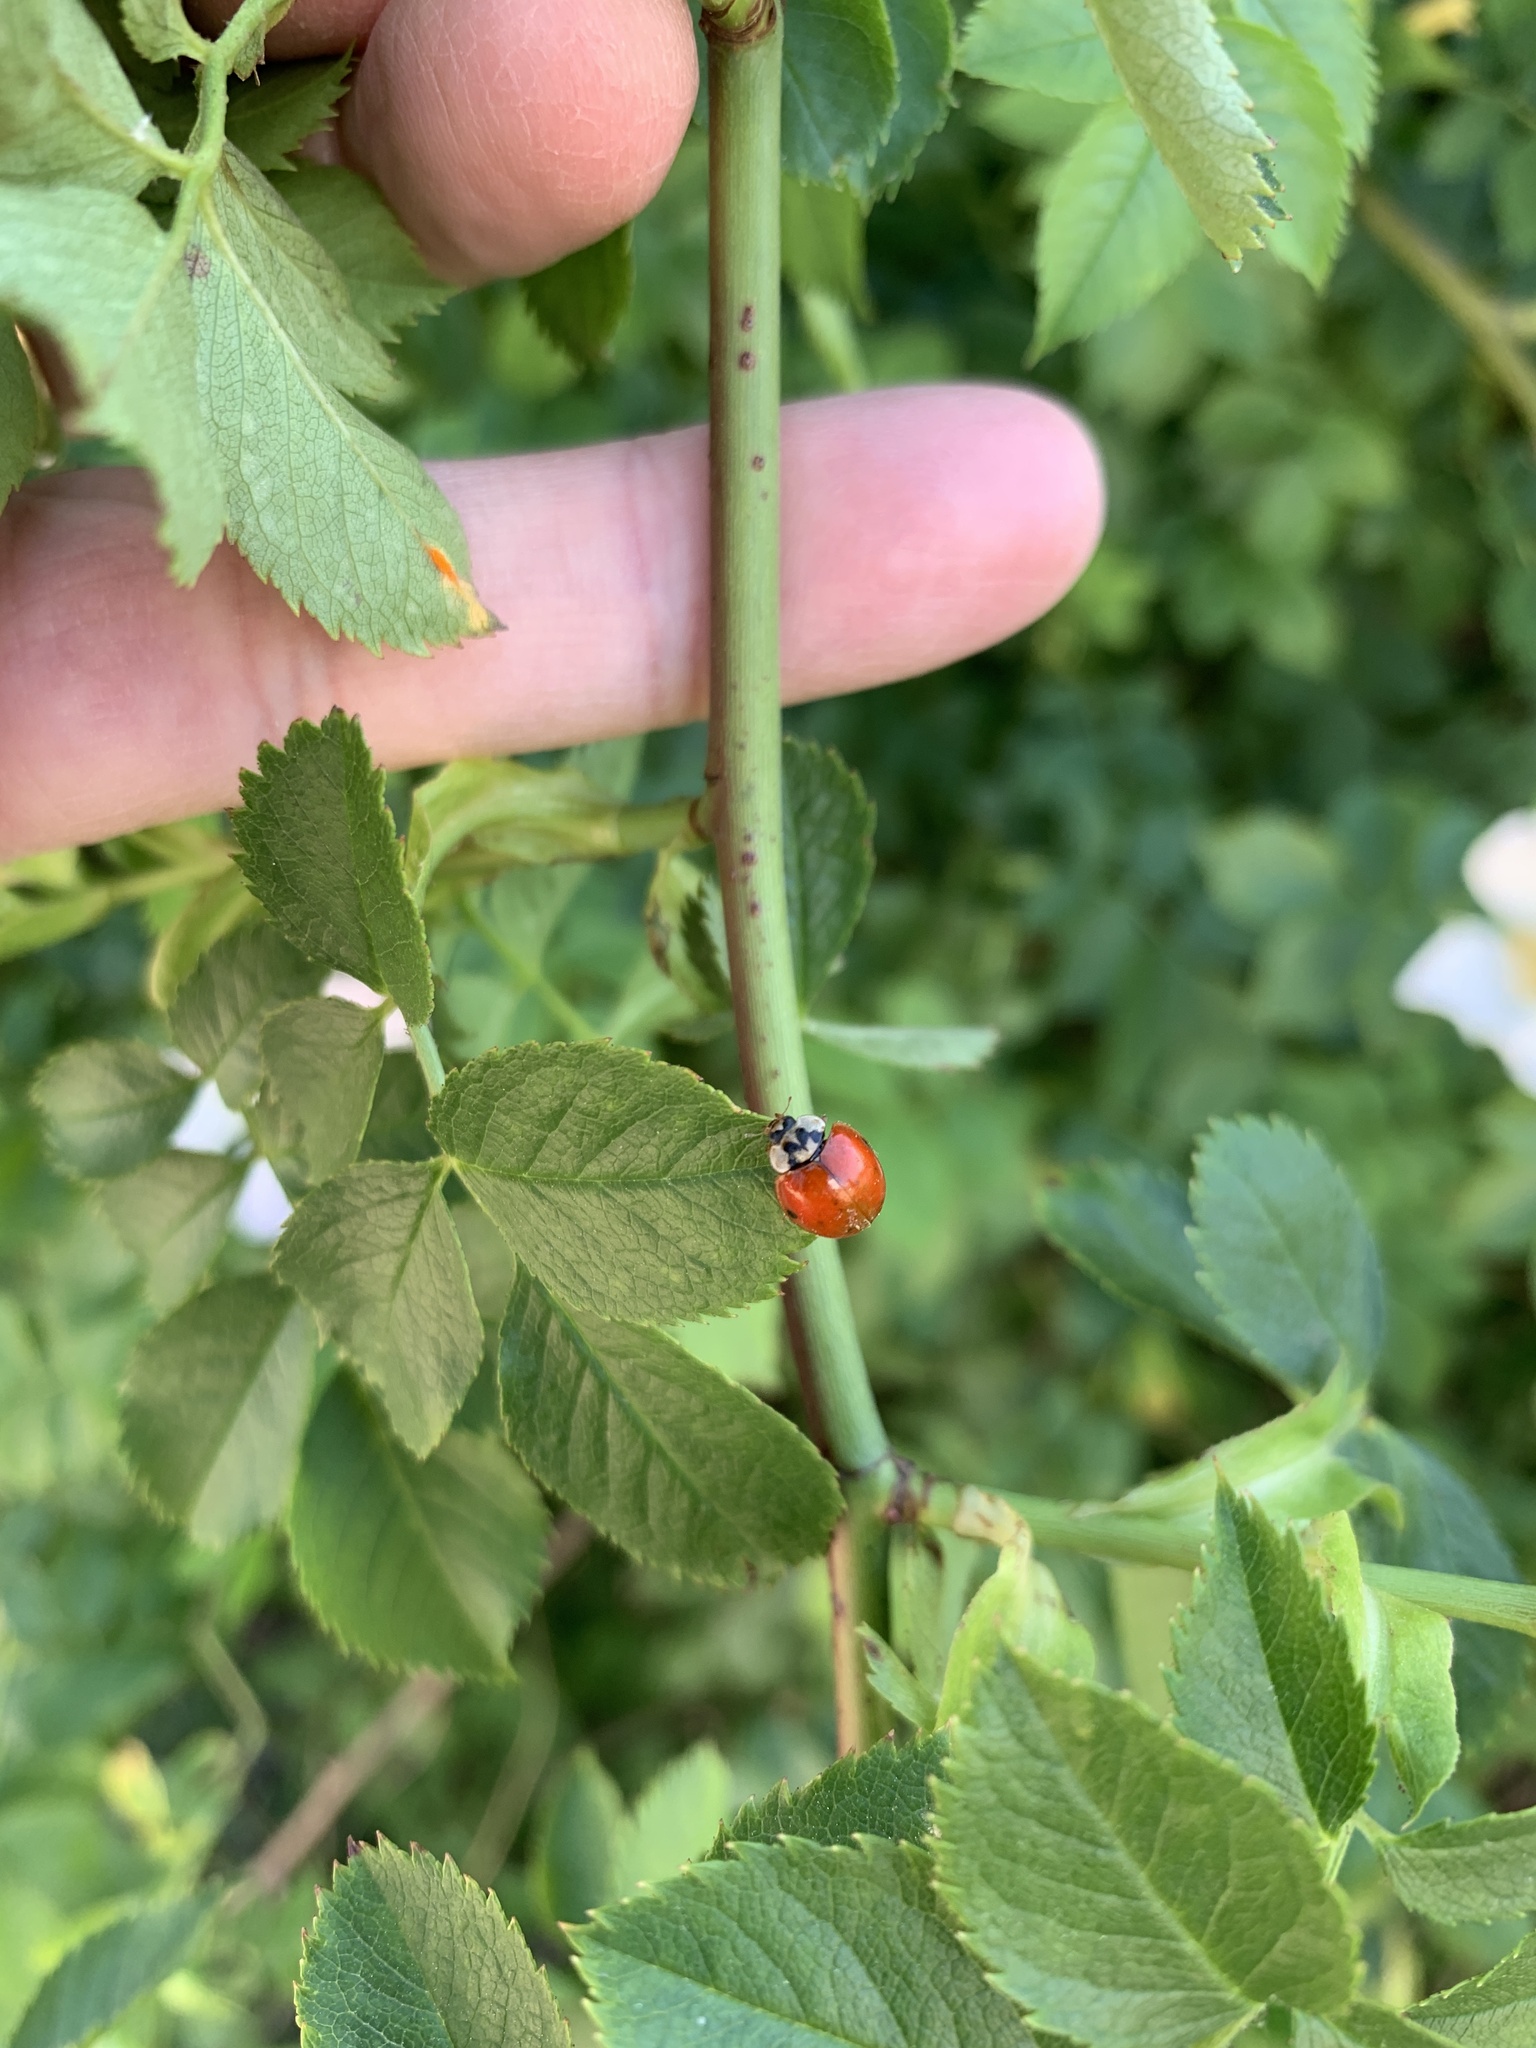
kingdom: Animalia
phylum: Arthropoda
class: Insecta
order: Coleoptera
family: Coccinellidae
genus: Harmonia
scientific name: Harmonia axyridis
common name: Harlequin ladybird
